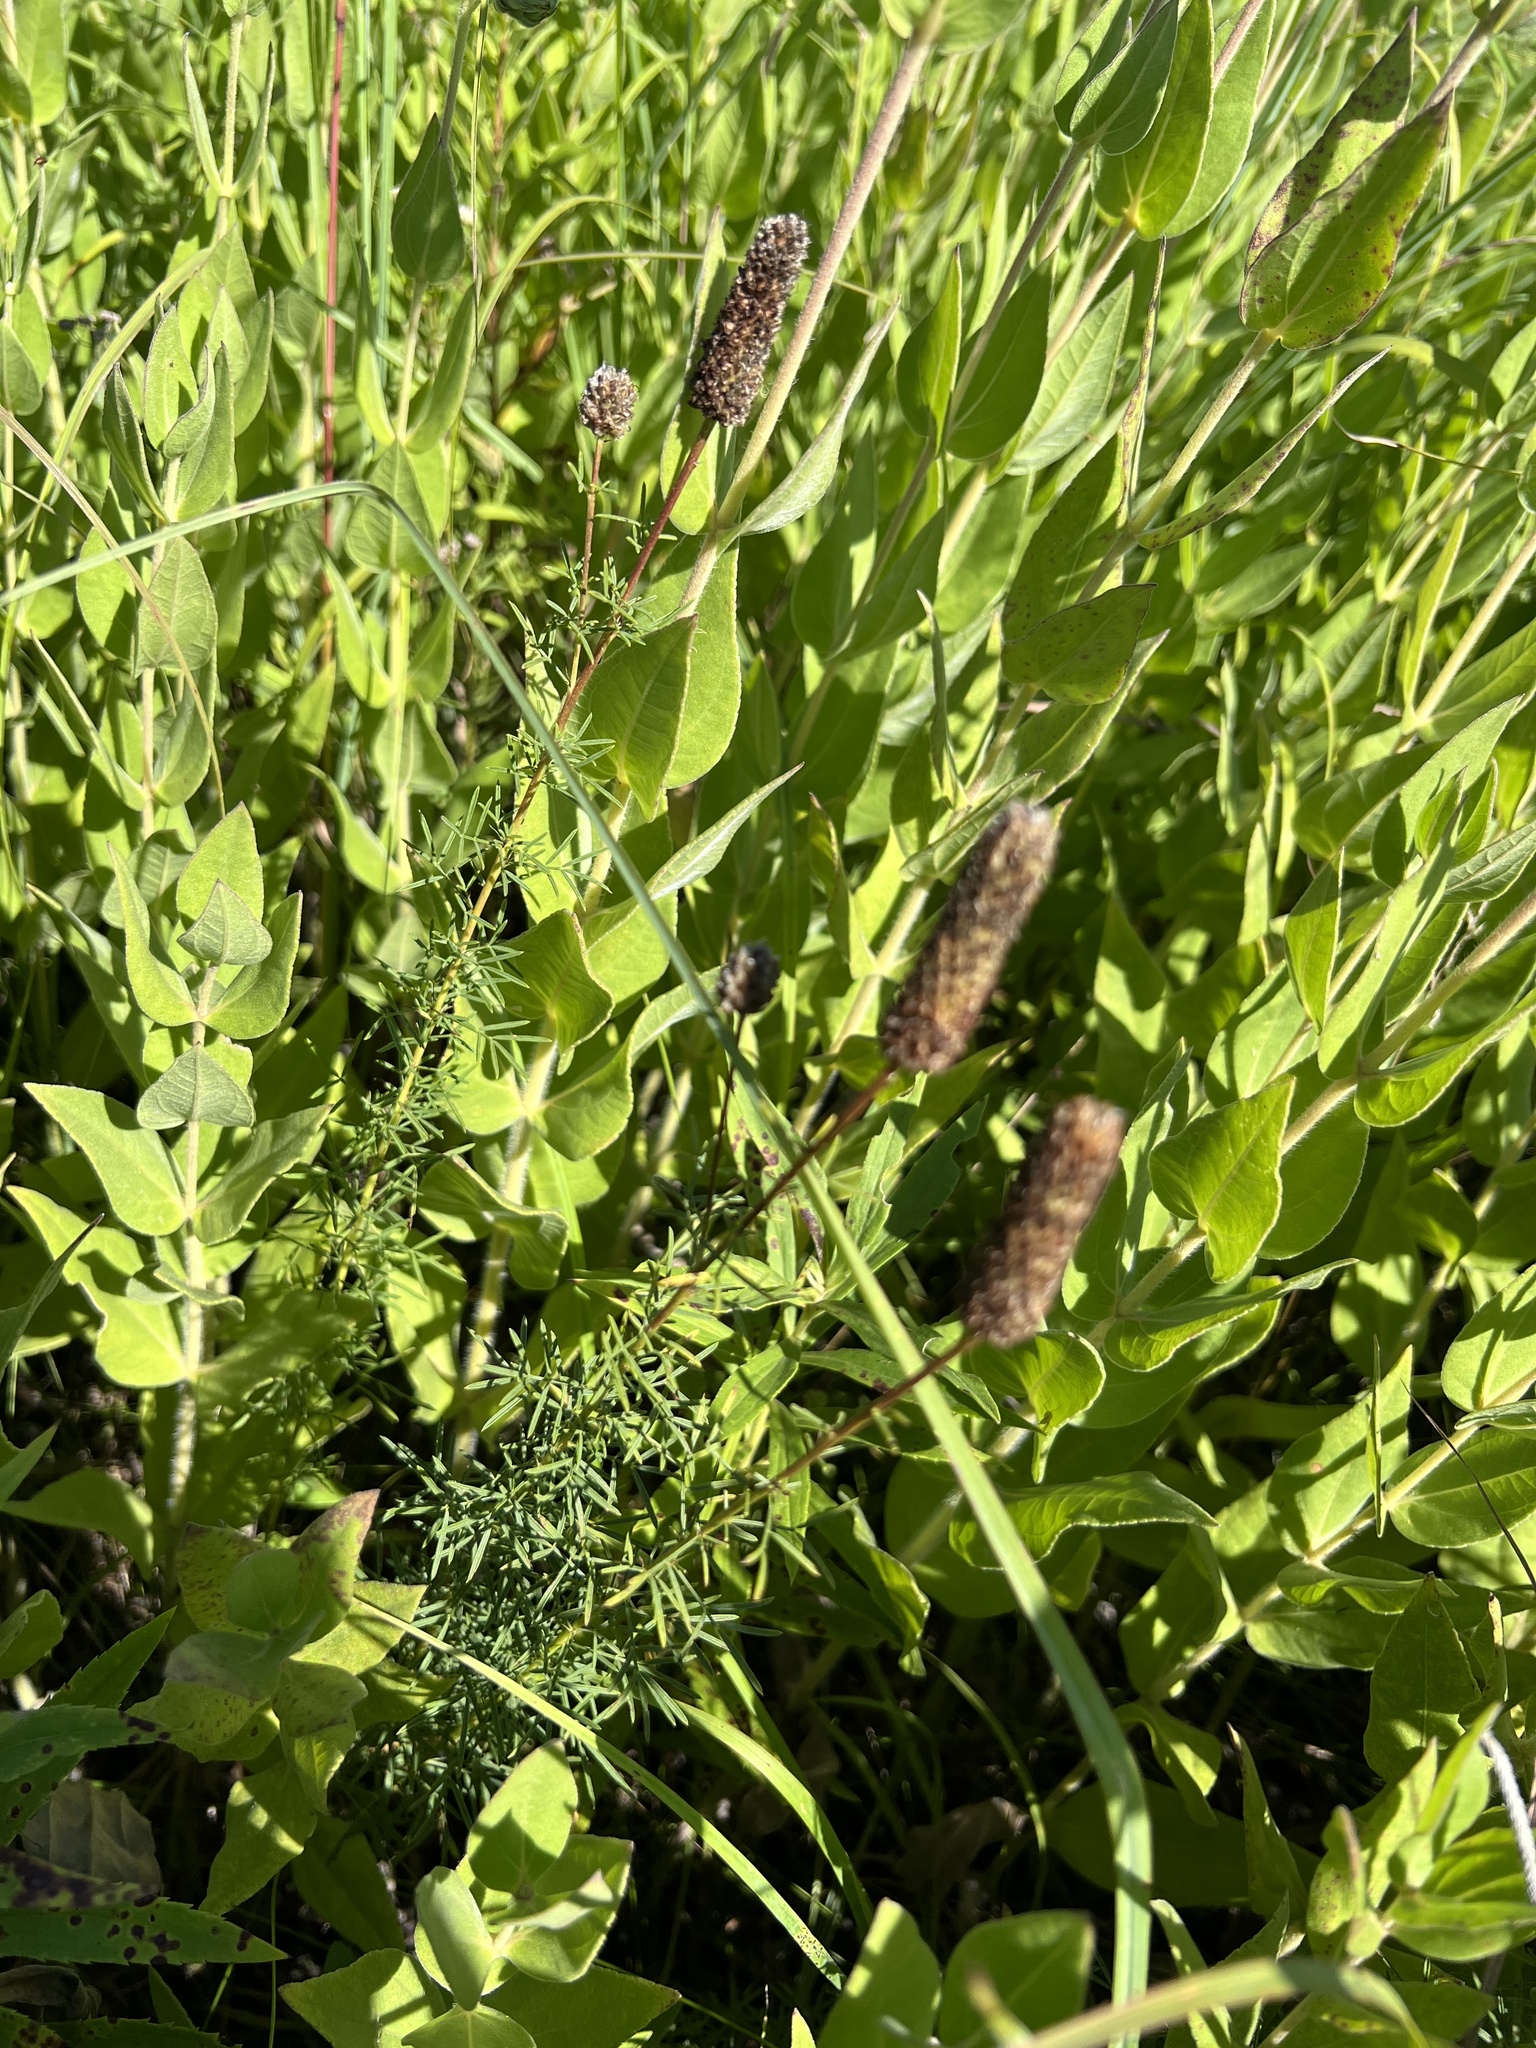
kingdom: Plantae
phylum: Tracheophyta
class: Magnoliopsida
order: Fabales
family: Fabaceae
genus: Dalea
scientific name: Dalea purpurea
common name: Purple prairie-clover
